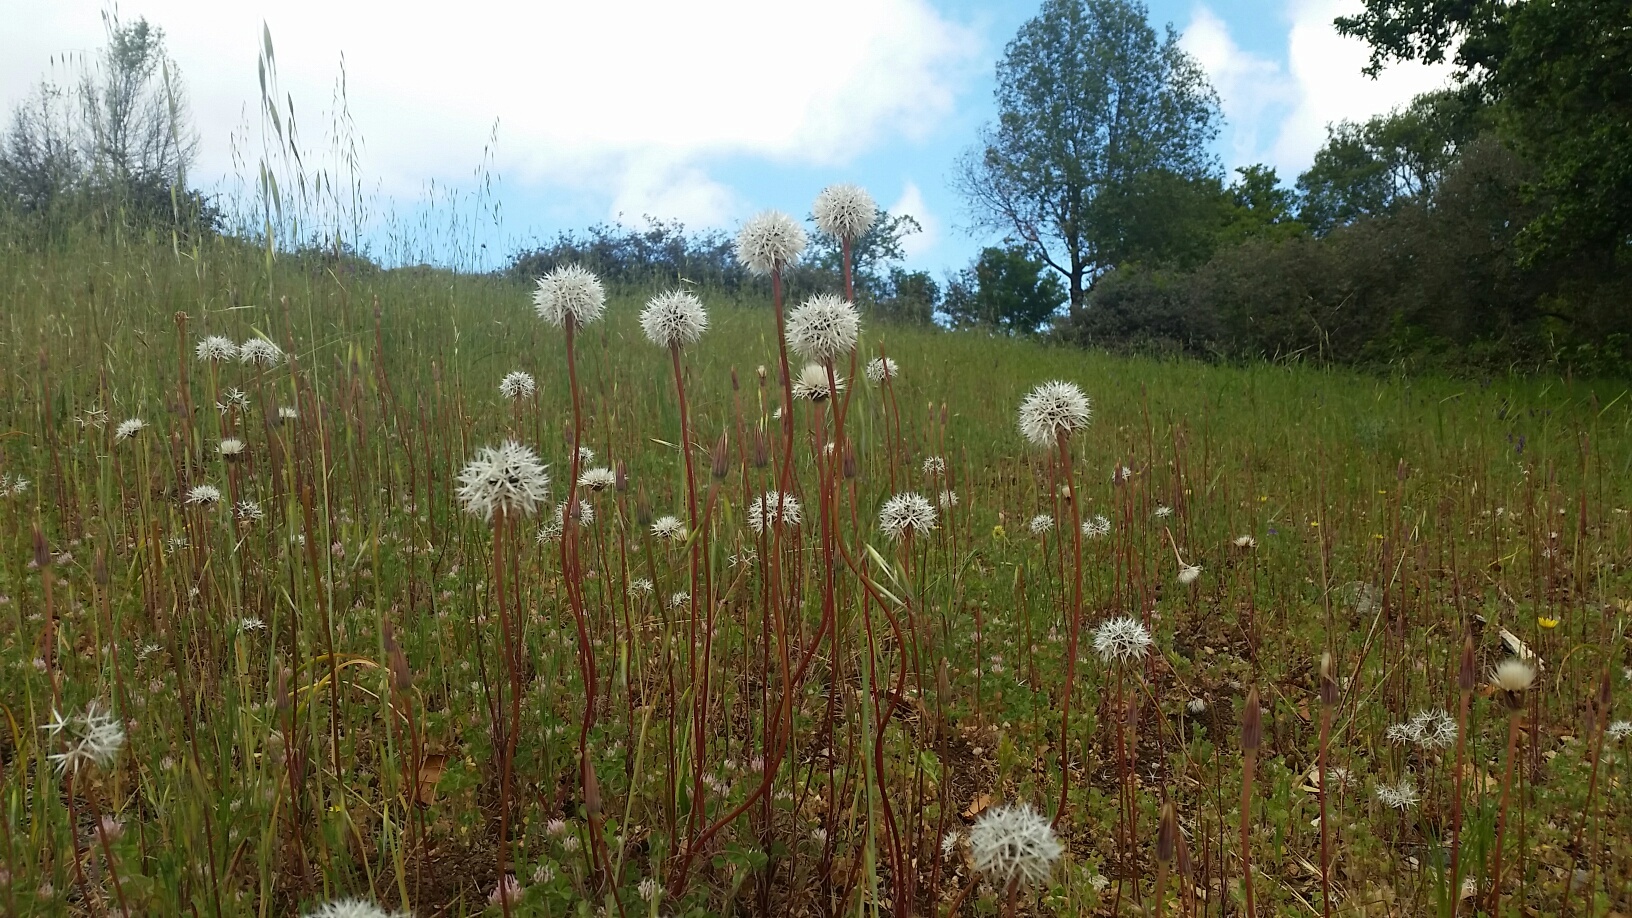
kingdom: Plantae
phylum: Tracheophyta
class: Magnoliopsida
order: Asterales
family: Asteraceae
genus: Microseris
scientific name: Microseris lindleyi
